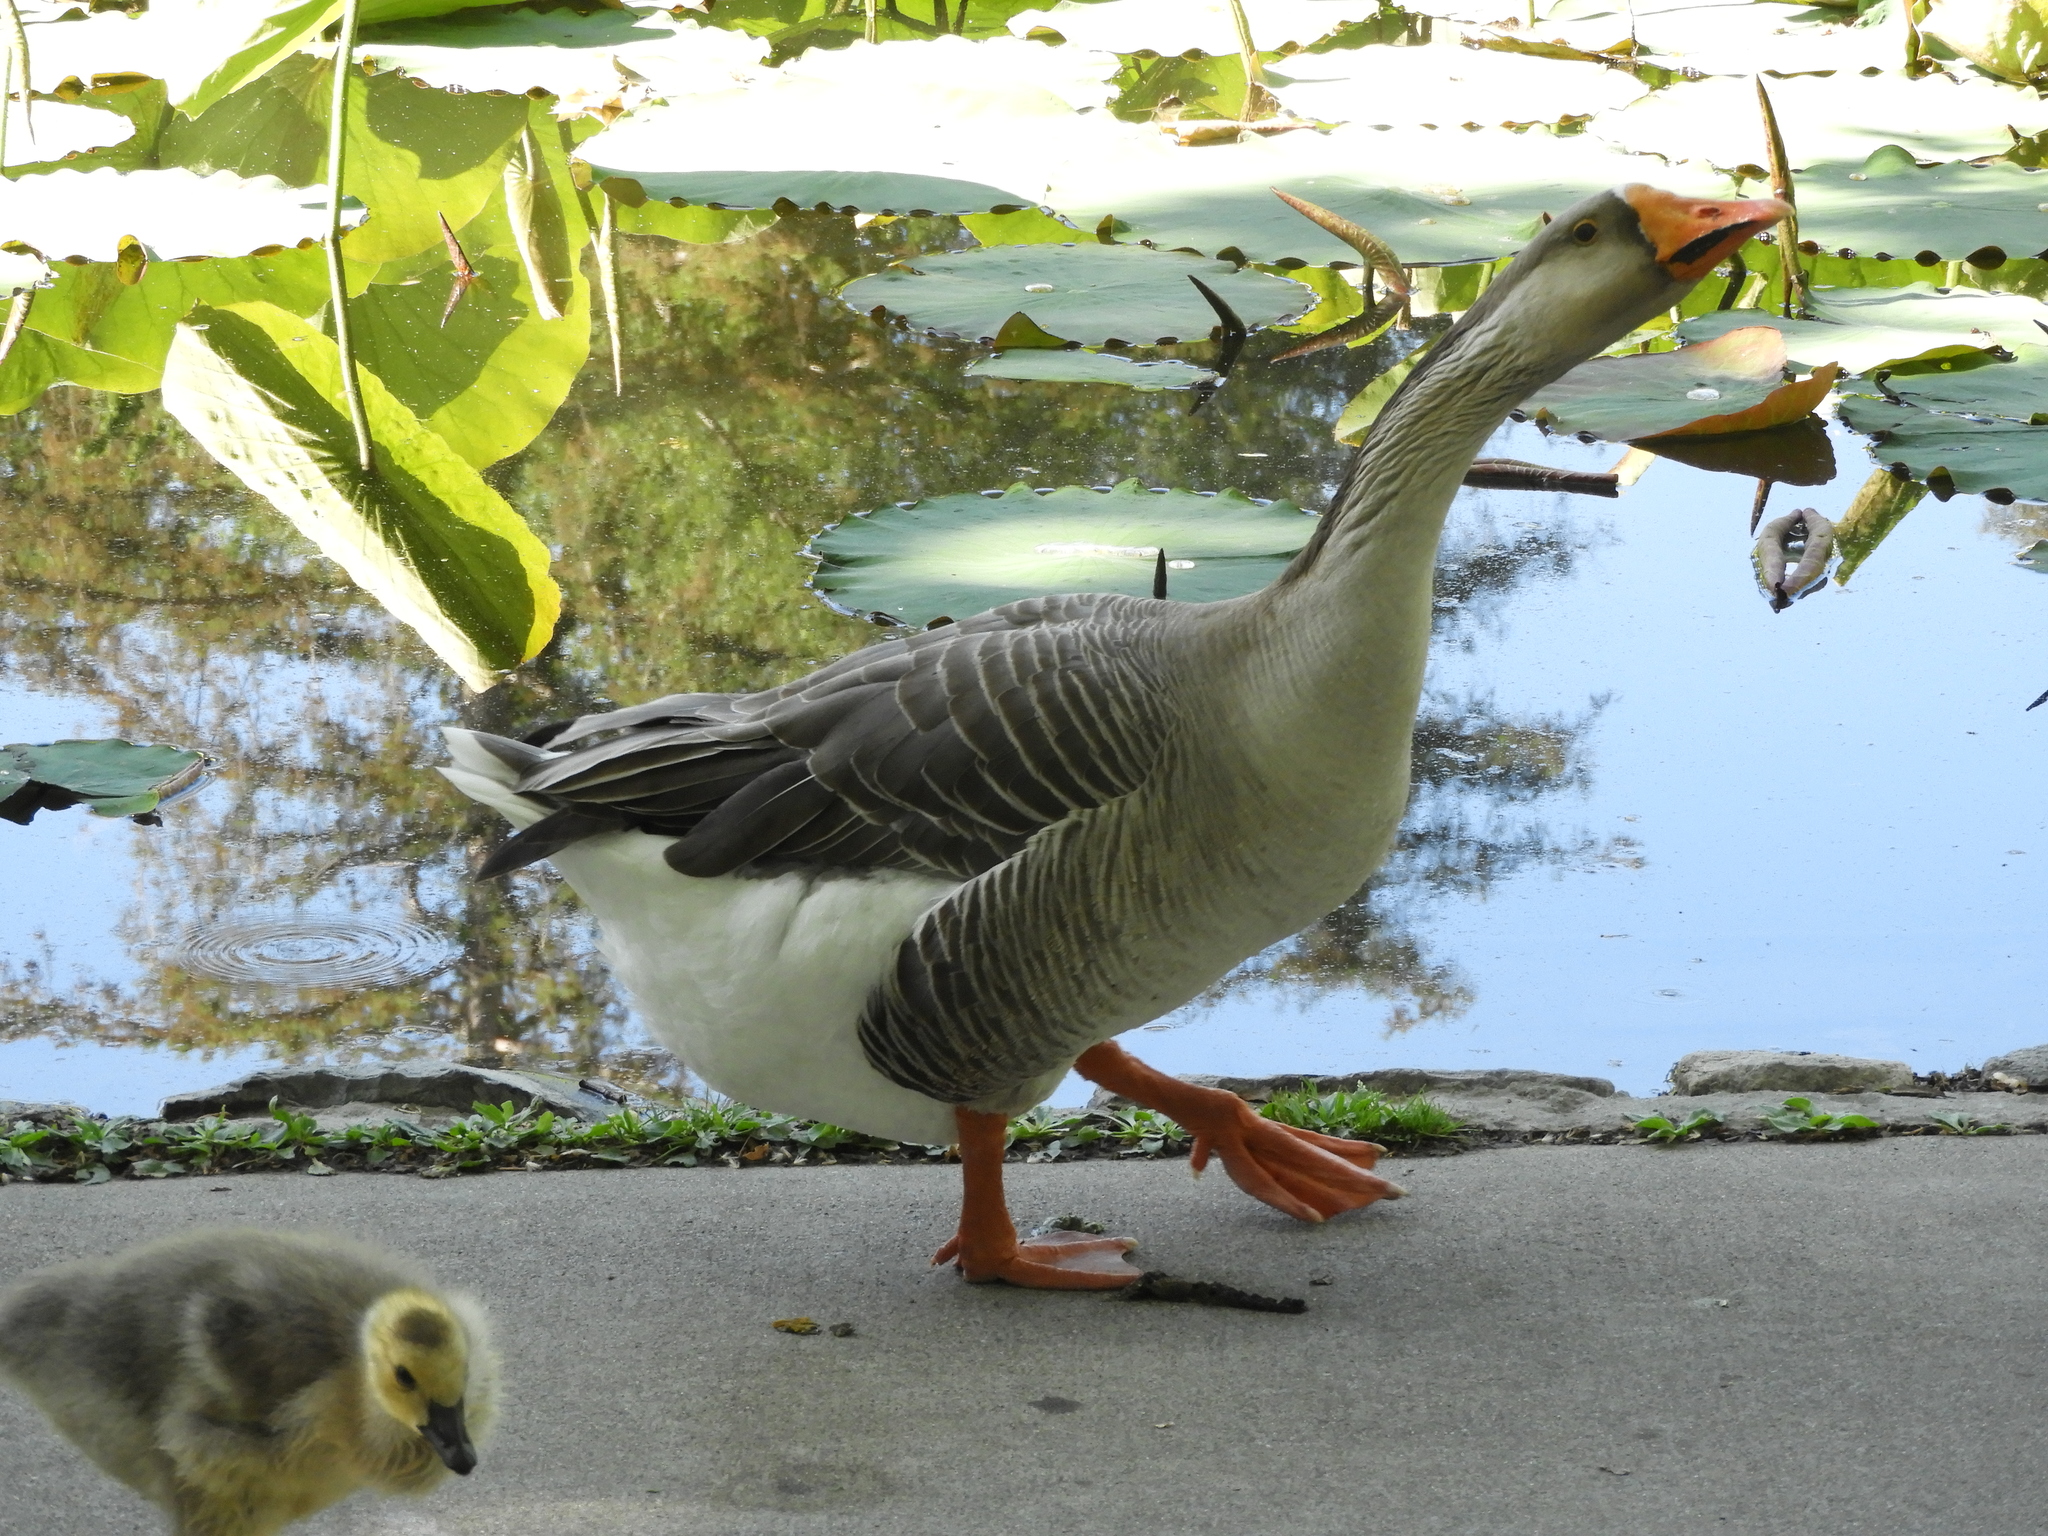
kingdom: Animalia
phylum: Chordata
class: Aves
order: Anseriformes
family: Anatidae
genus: Anser
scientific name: Anser
